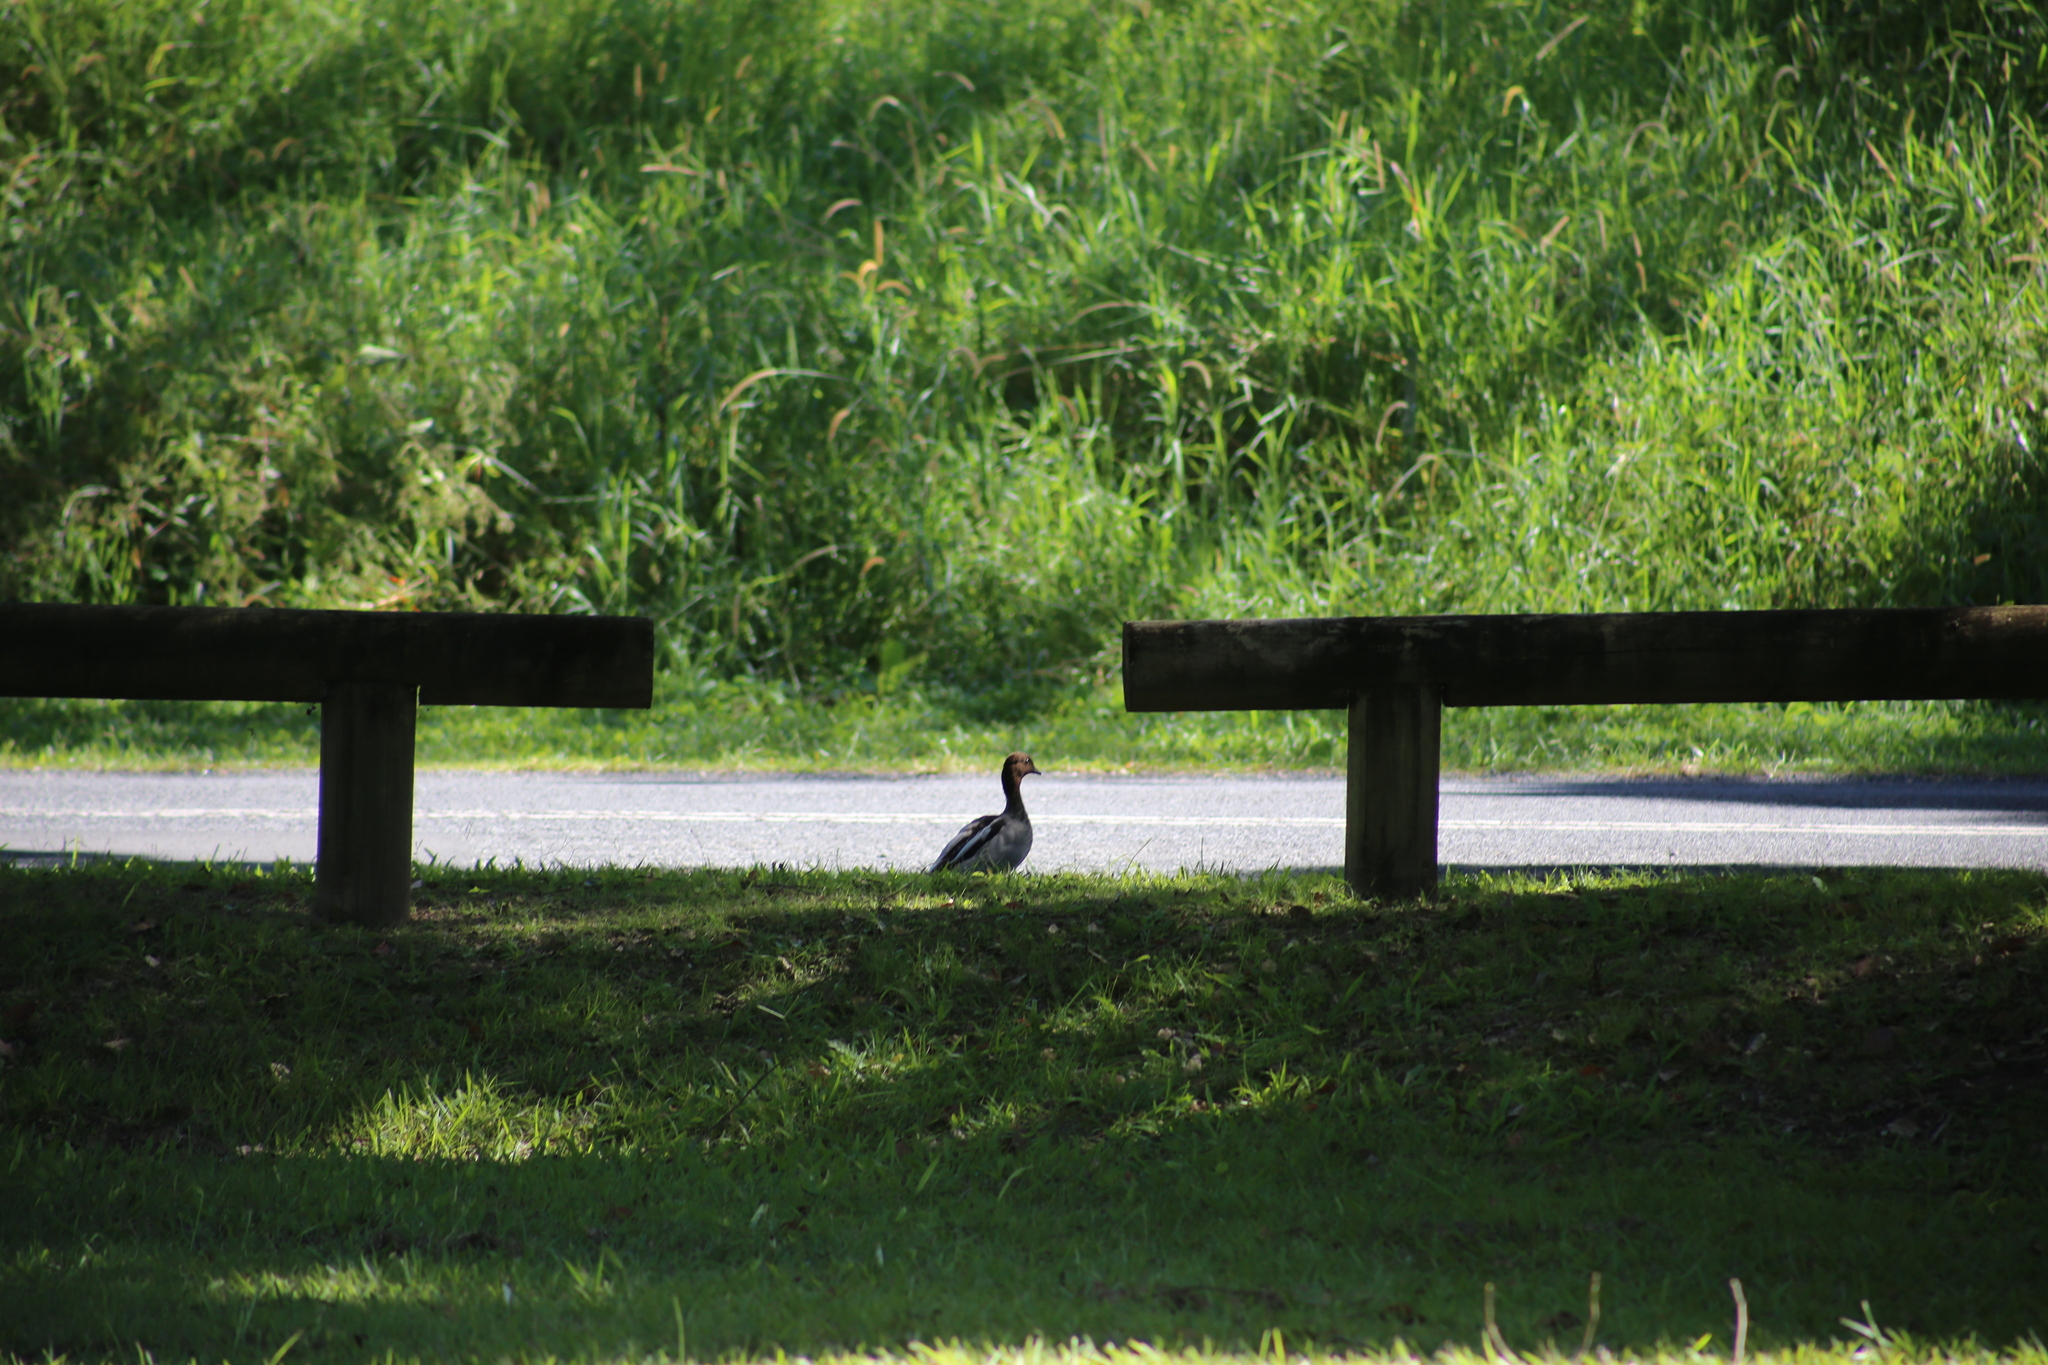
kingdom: Animalia
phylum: Chordata
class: Aves
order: Anseriformes
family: Anatidae
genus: Chenonetta
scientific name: Chenonetta jubata
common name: Maned duck
